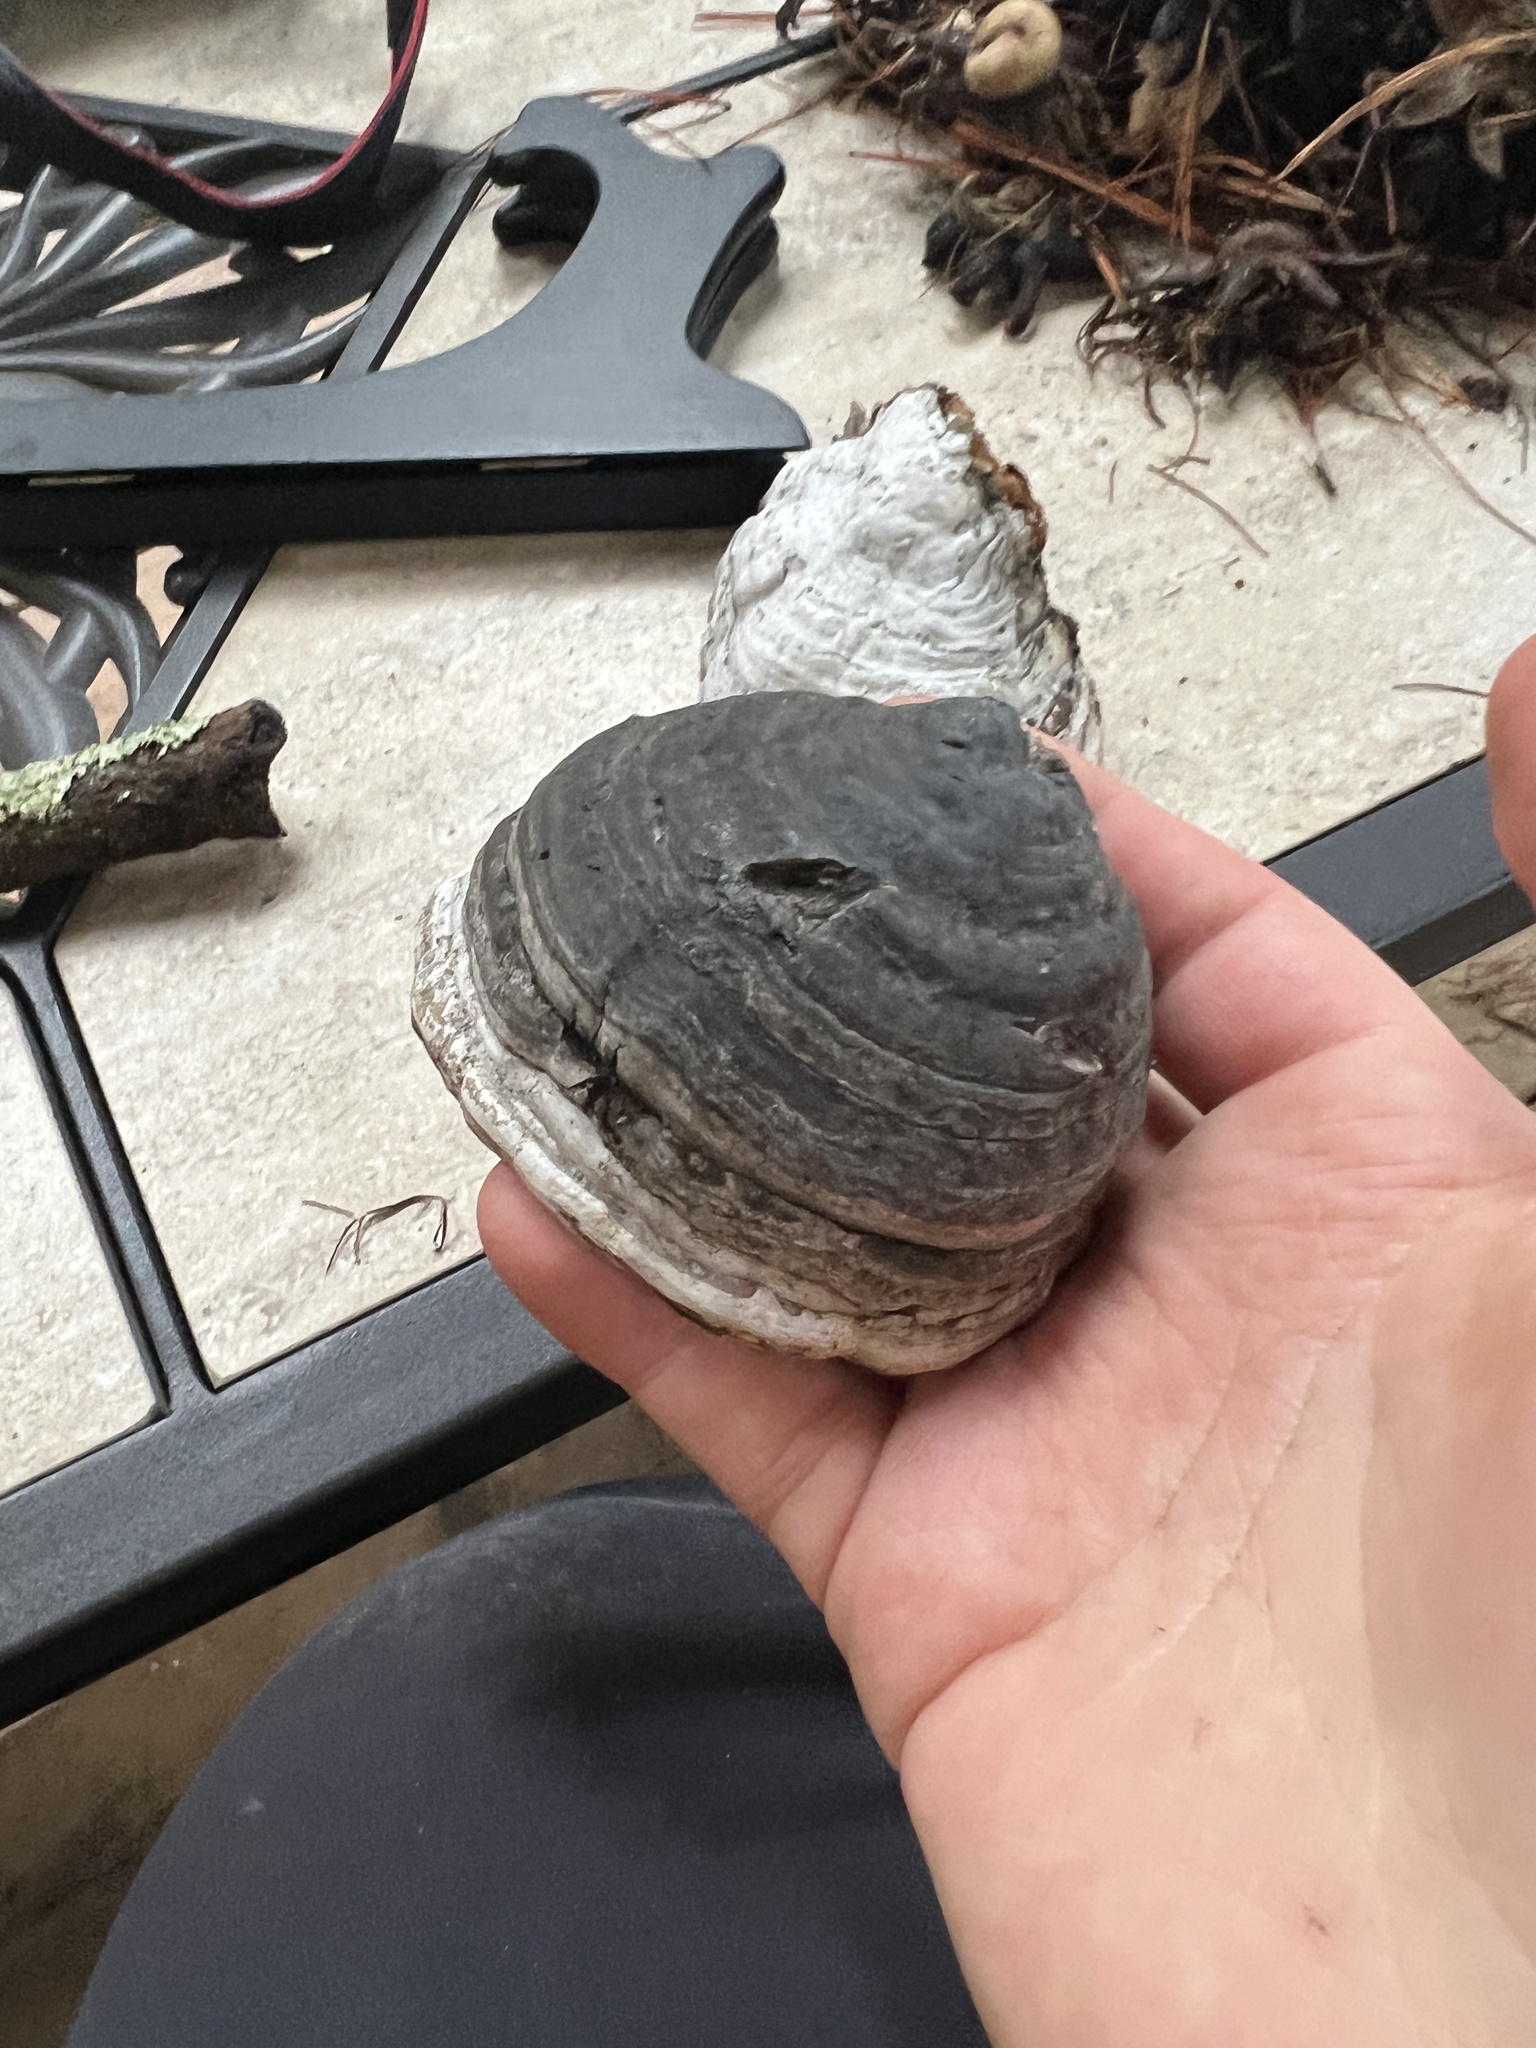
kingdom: Fungi
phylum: Basidiomycota
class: Agaricomycetes
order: Polyporales
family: Polyporaceae
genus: Fomes
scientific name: Fomes fomentarius
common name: Hoof fungus
